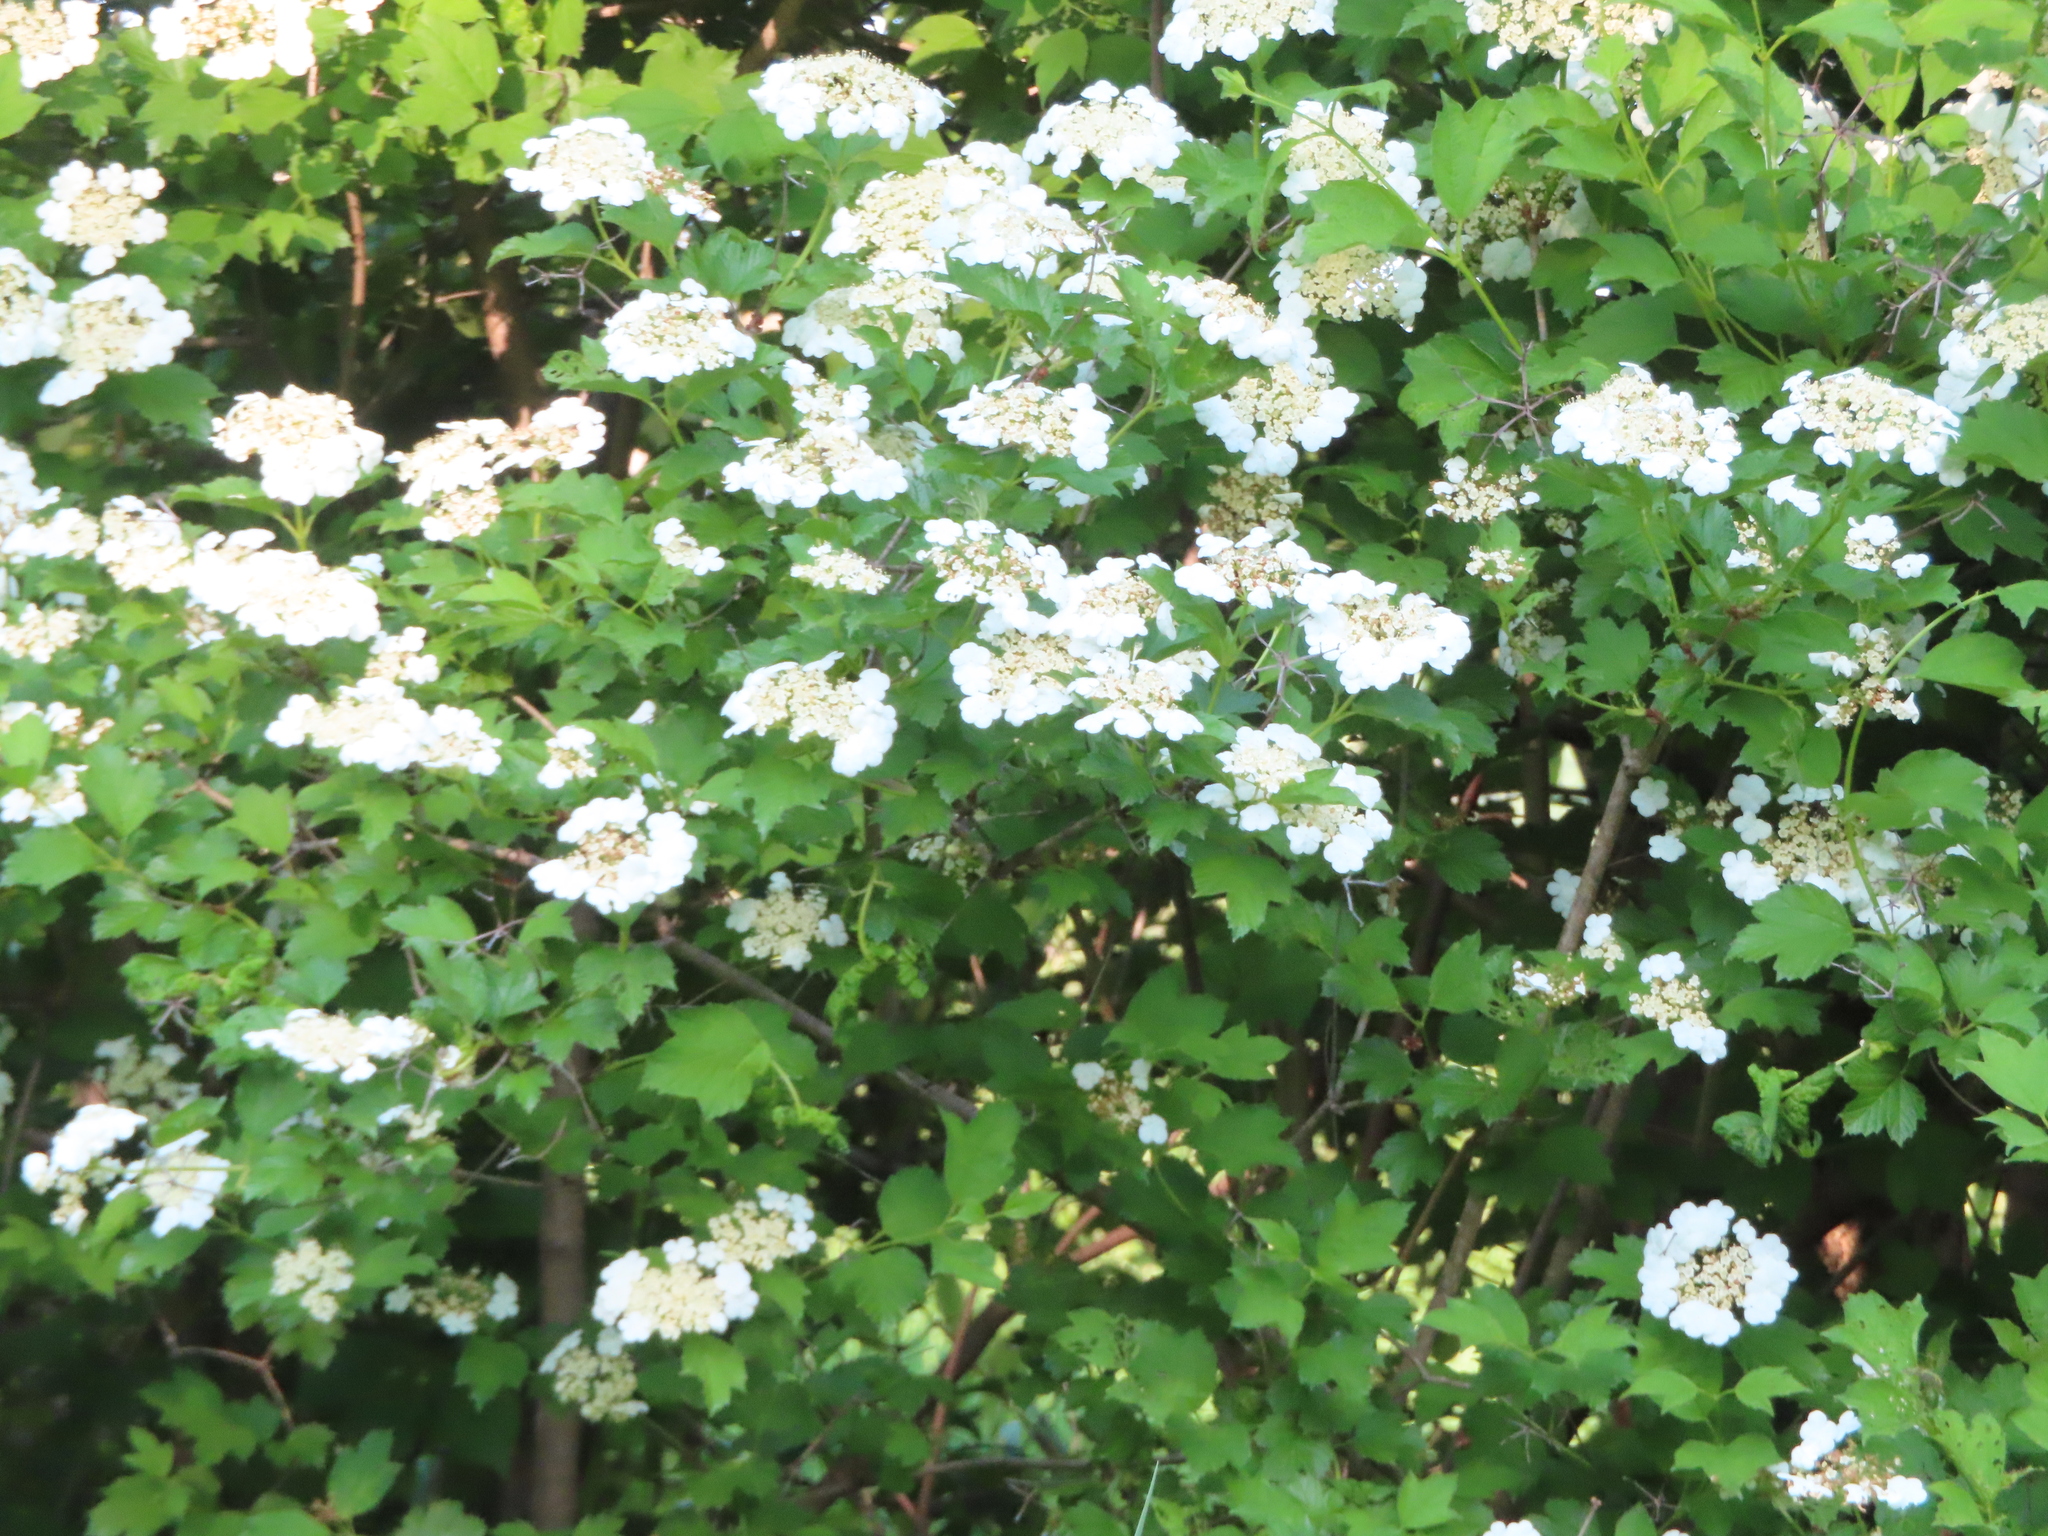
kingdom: Plantae
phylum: Tracheophyta
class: Magnoliopsida
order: Dipsacales
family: Viburnaceae
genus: Viburnum
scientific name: Viburnum opulus
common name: Guelder-rose
